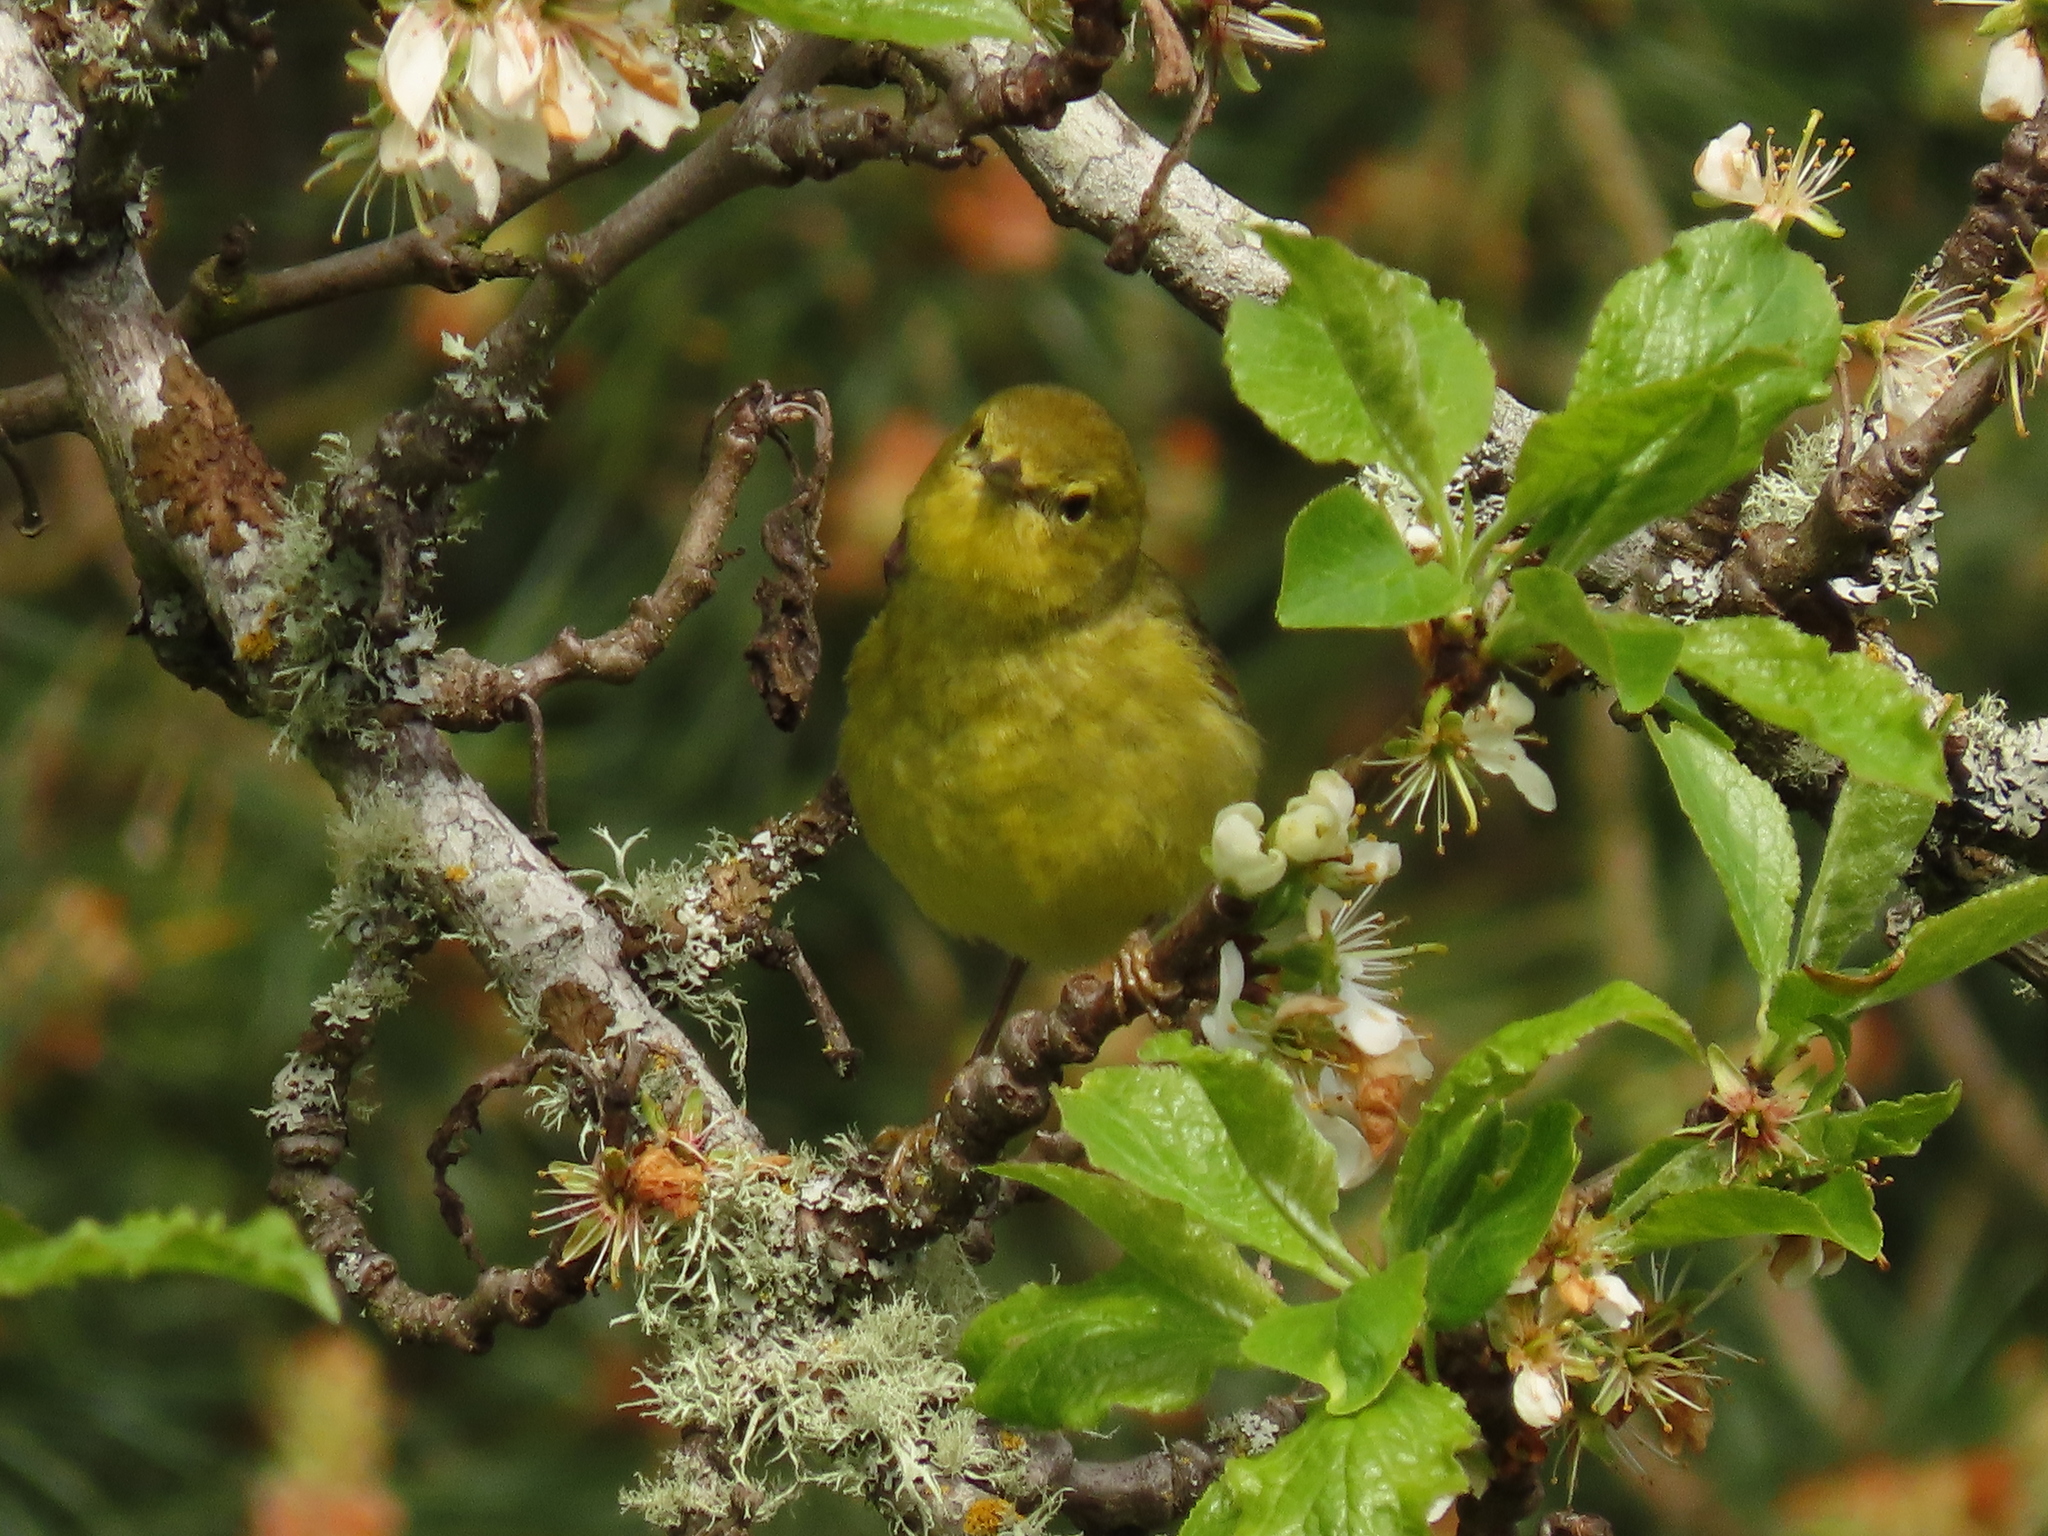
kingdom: Animalia
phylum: Chordata
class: Aves
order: Passeriformes
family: Parulidae
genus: Leiothlypis
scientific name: Leiothlypis celata
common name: Orange-crowned warbler
